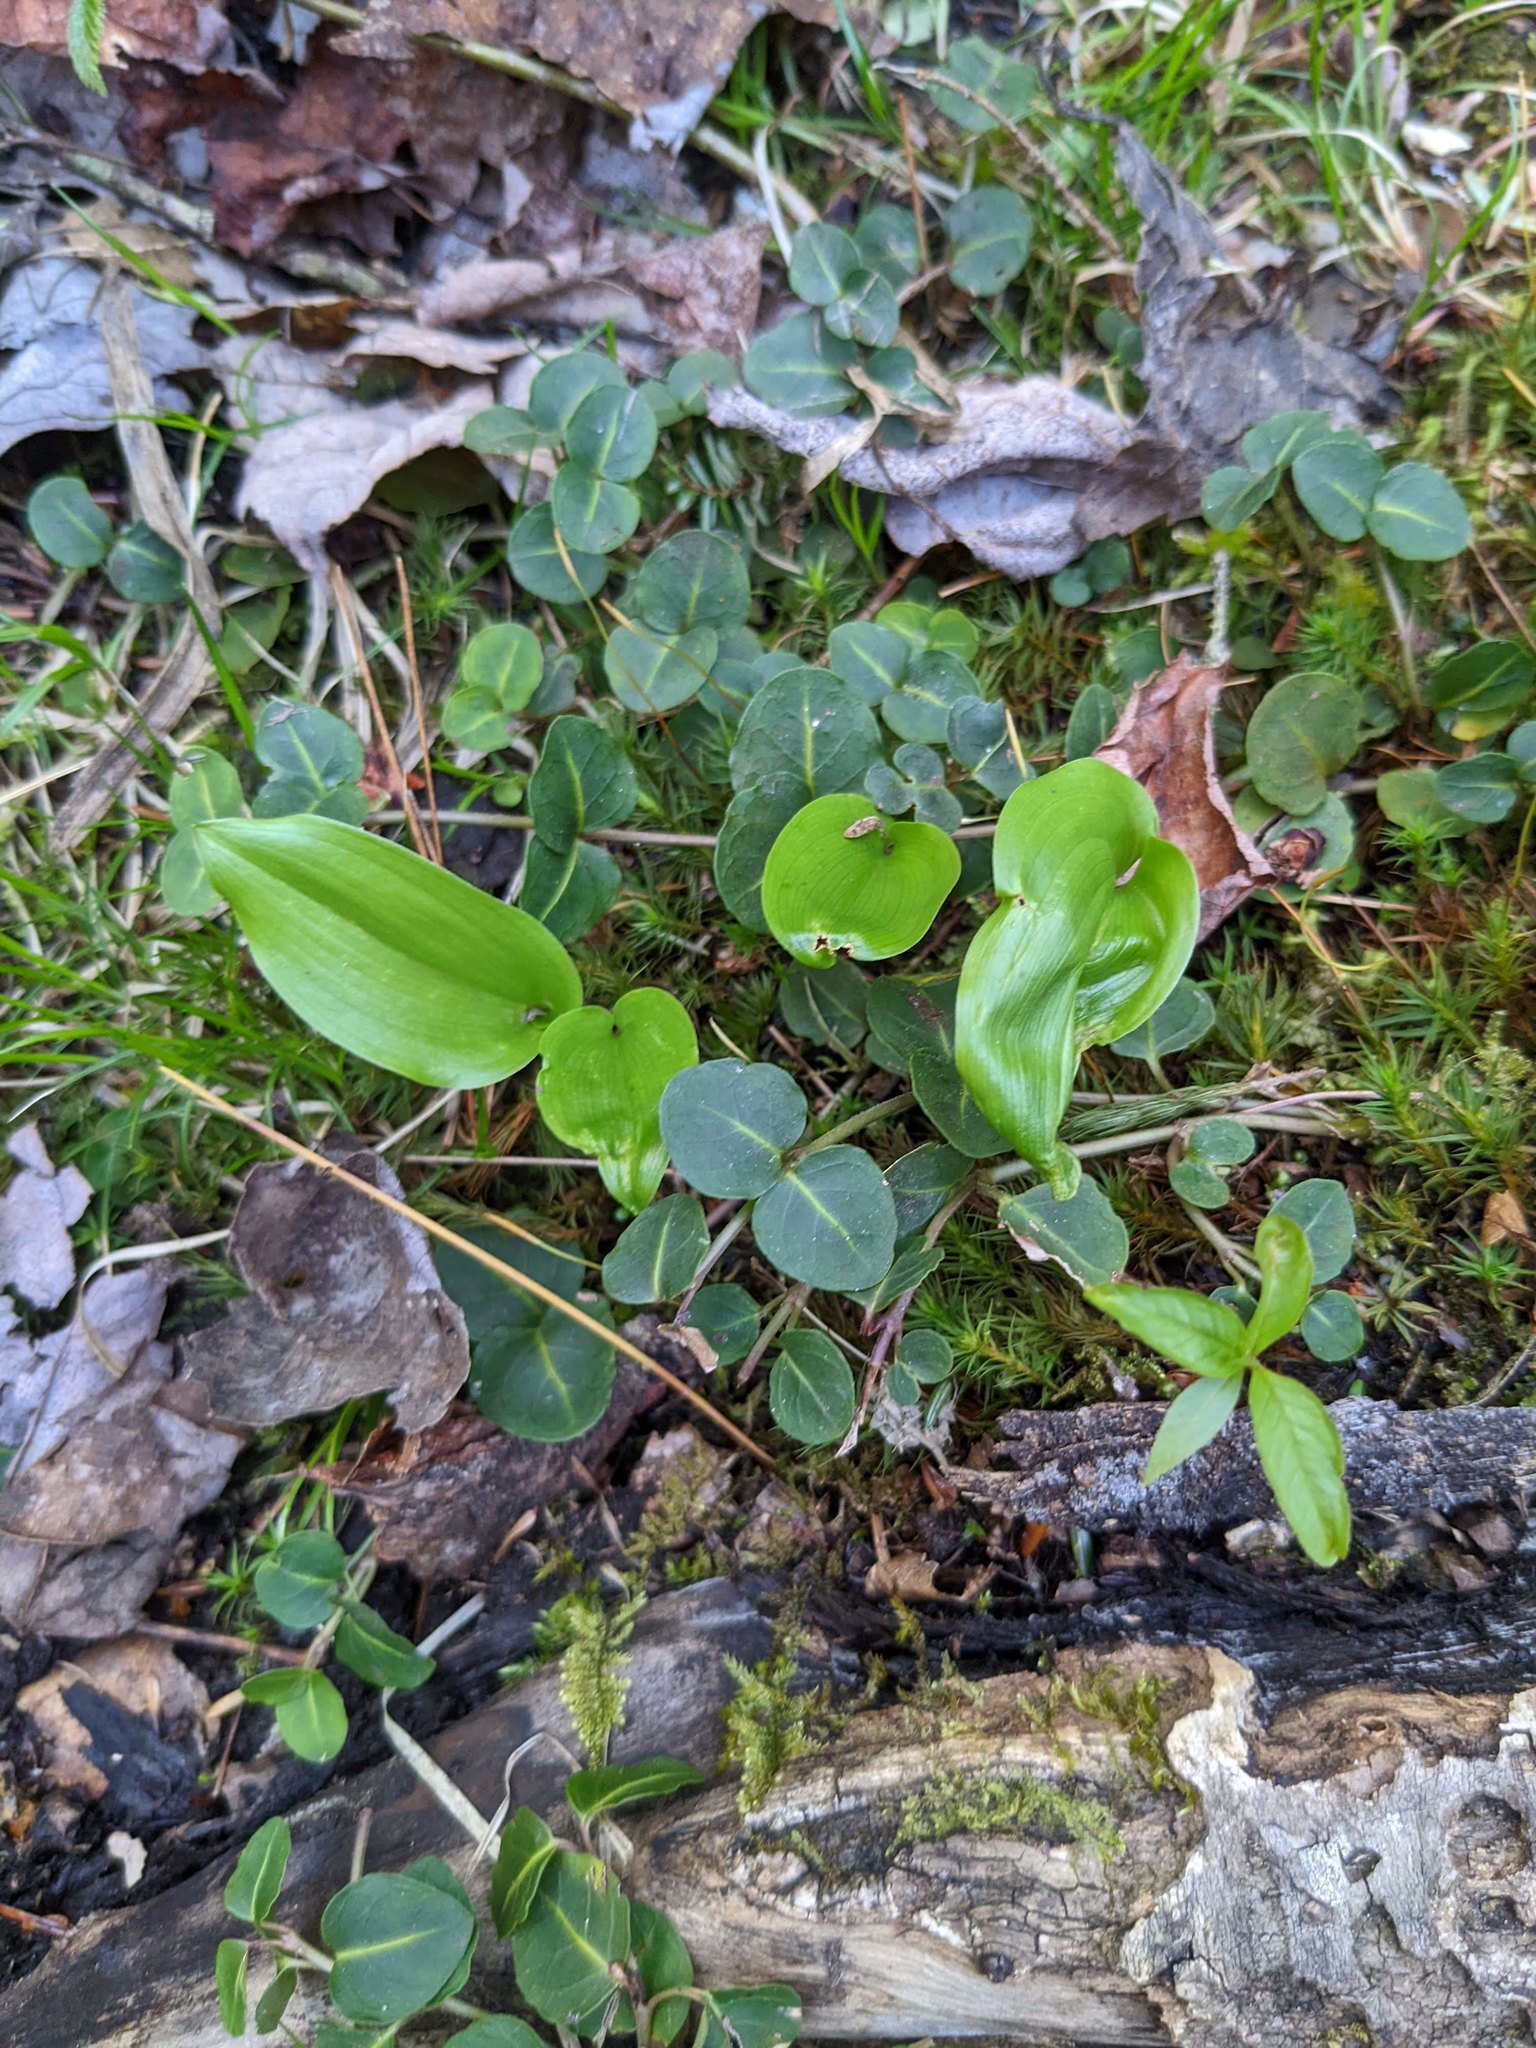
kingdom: Plantae
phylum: Tracheophyta
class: Magnoliopsida
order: Gentianales
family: Rubiaceae
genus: Mitchella
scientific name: Mitchella repens
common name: Partridge-berry
